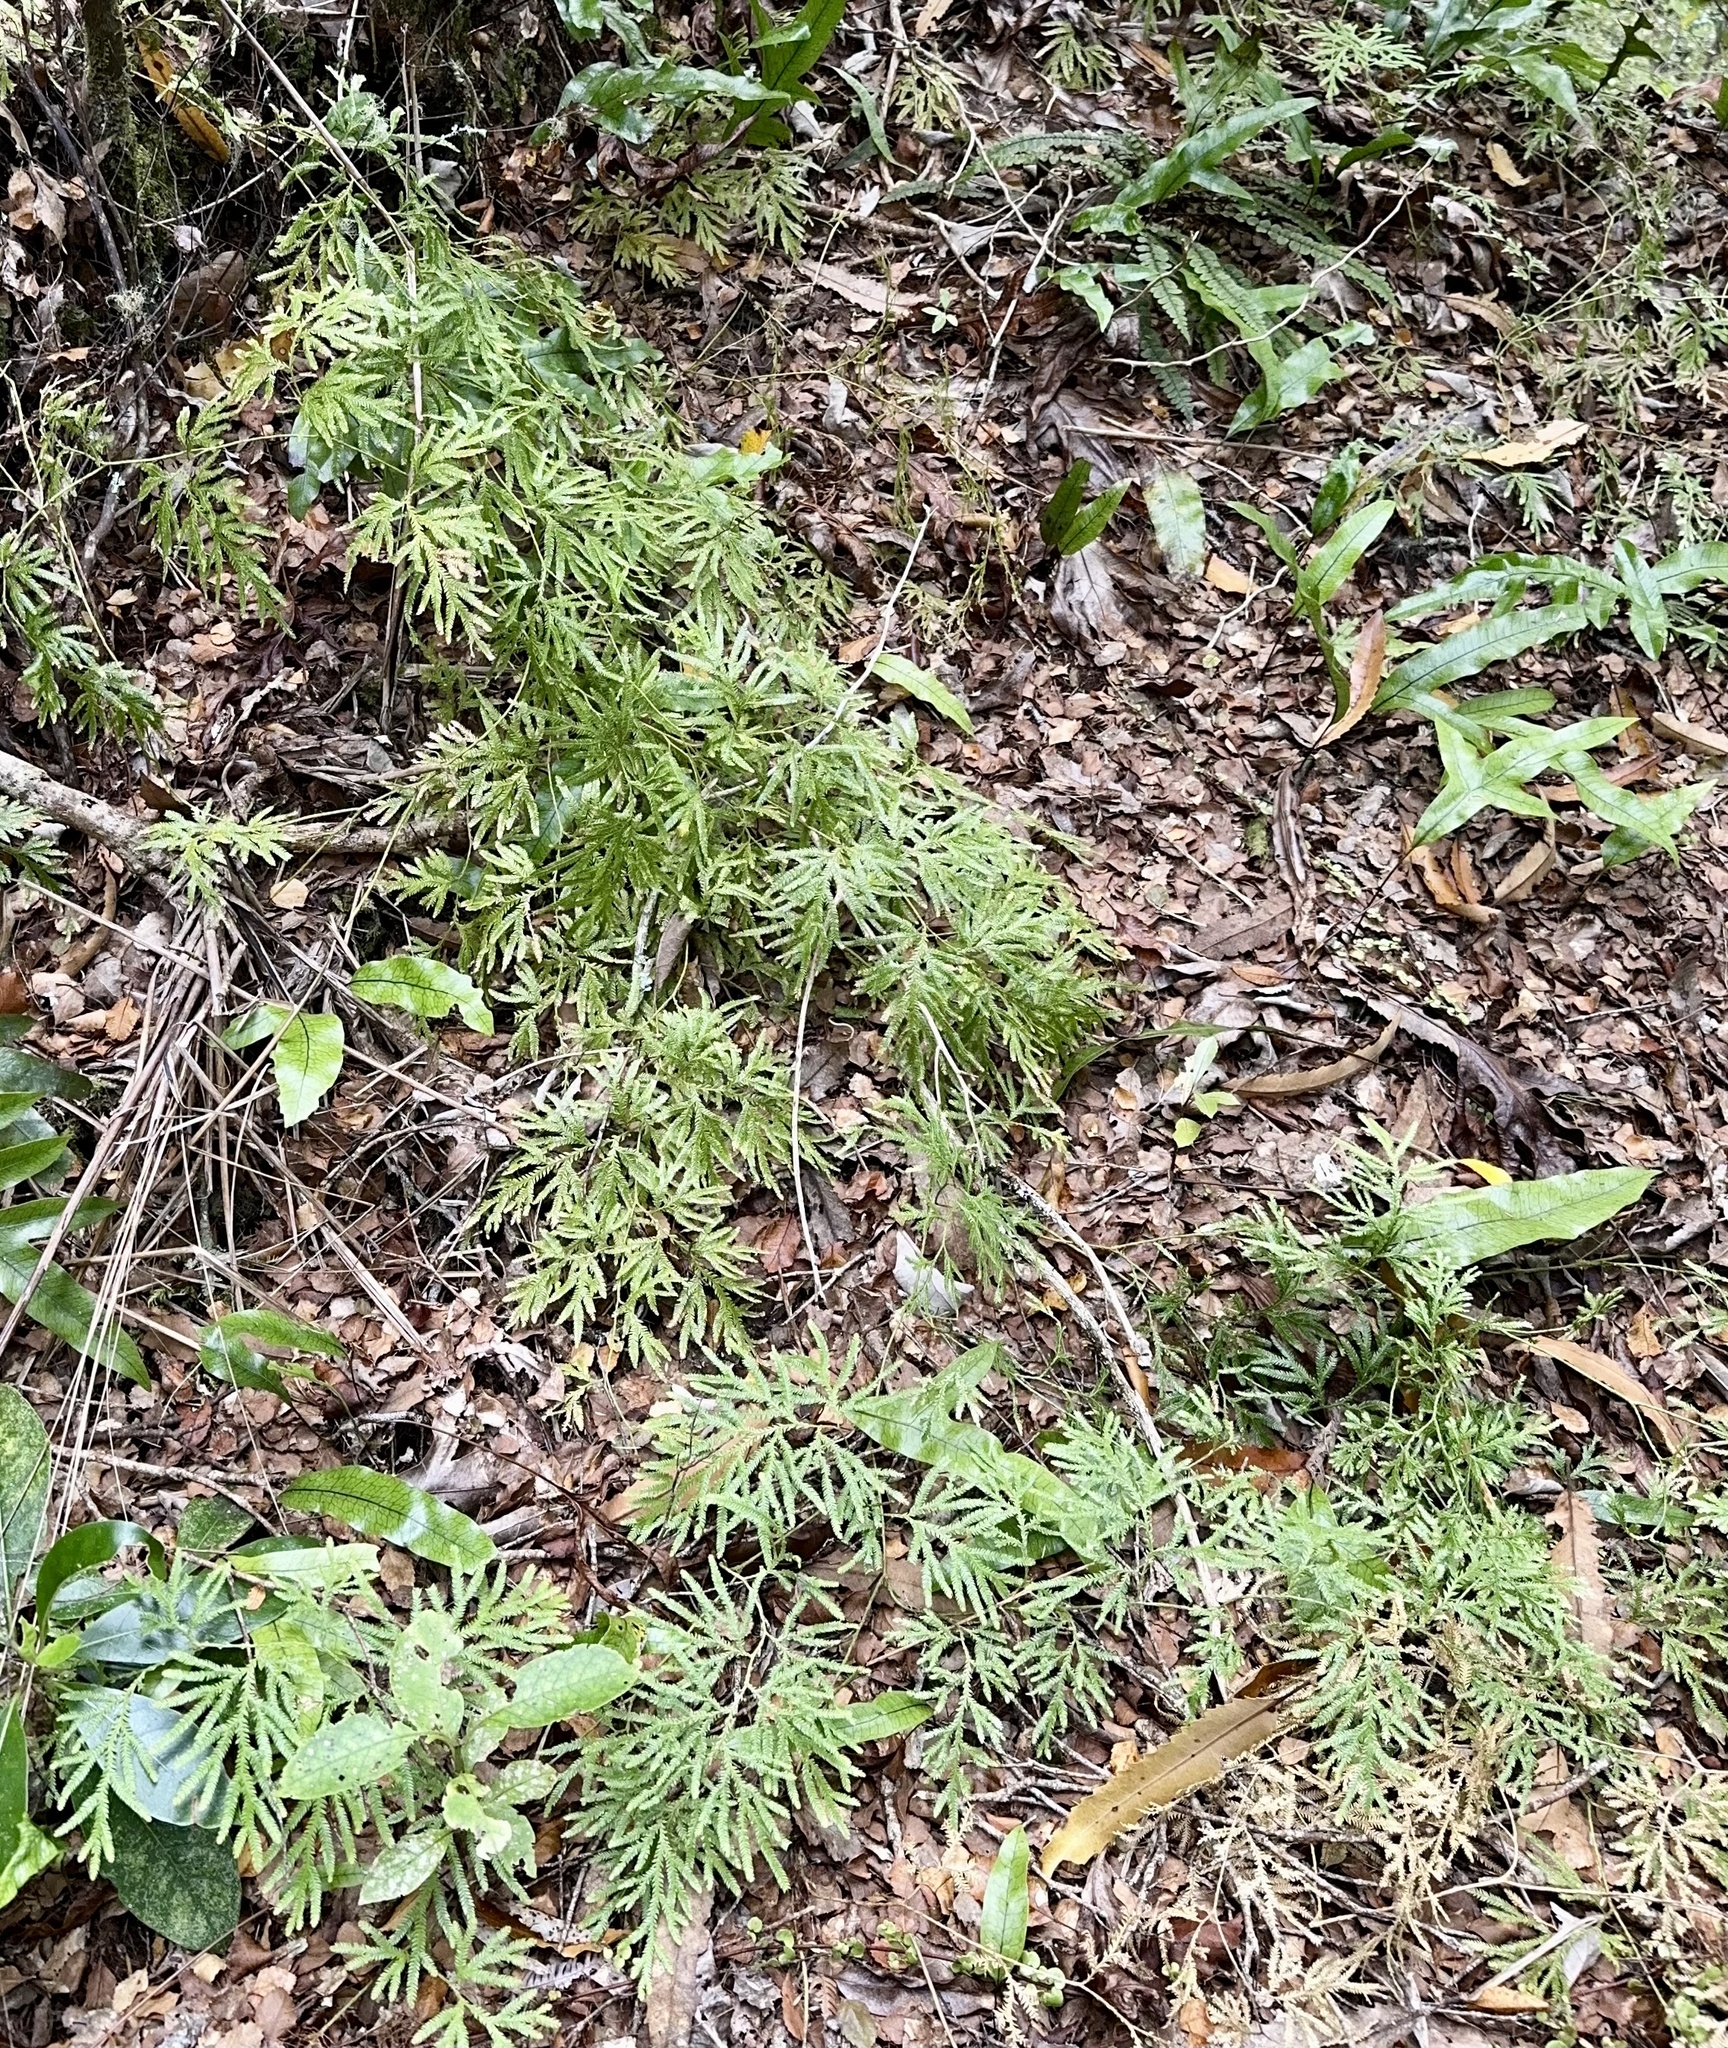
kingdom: Plantae
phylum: Tracheophyta
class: Lycopodiopsida
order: Lycopodiales
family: Lycopodiaceae
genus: Lycopodium
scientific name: Lycopodium volubile
